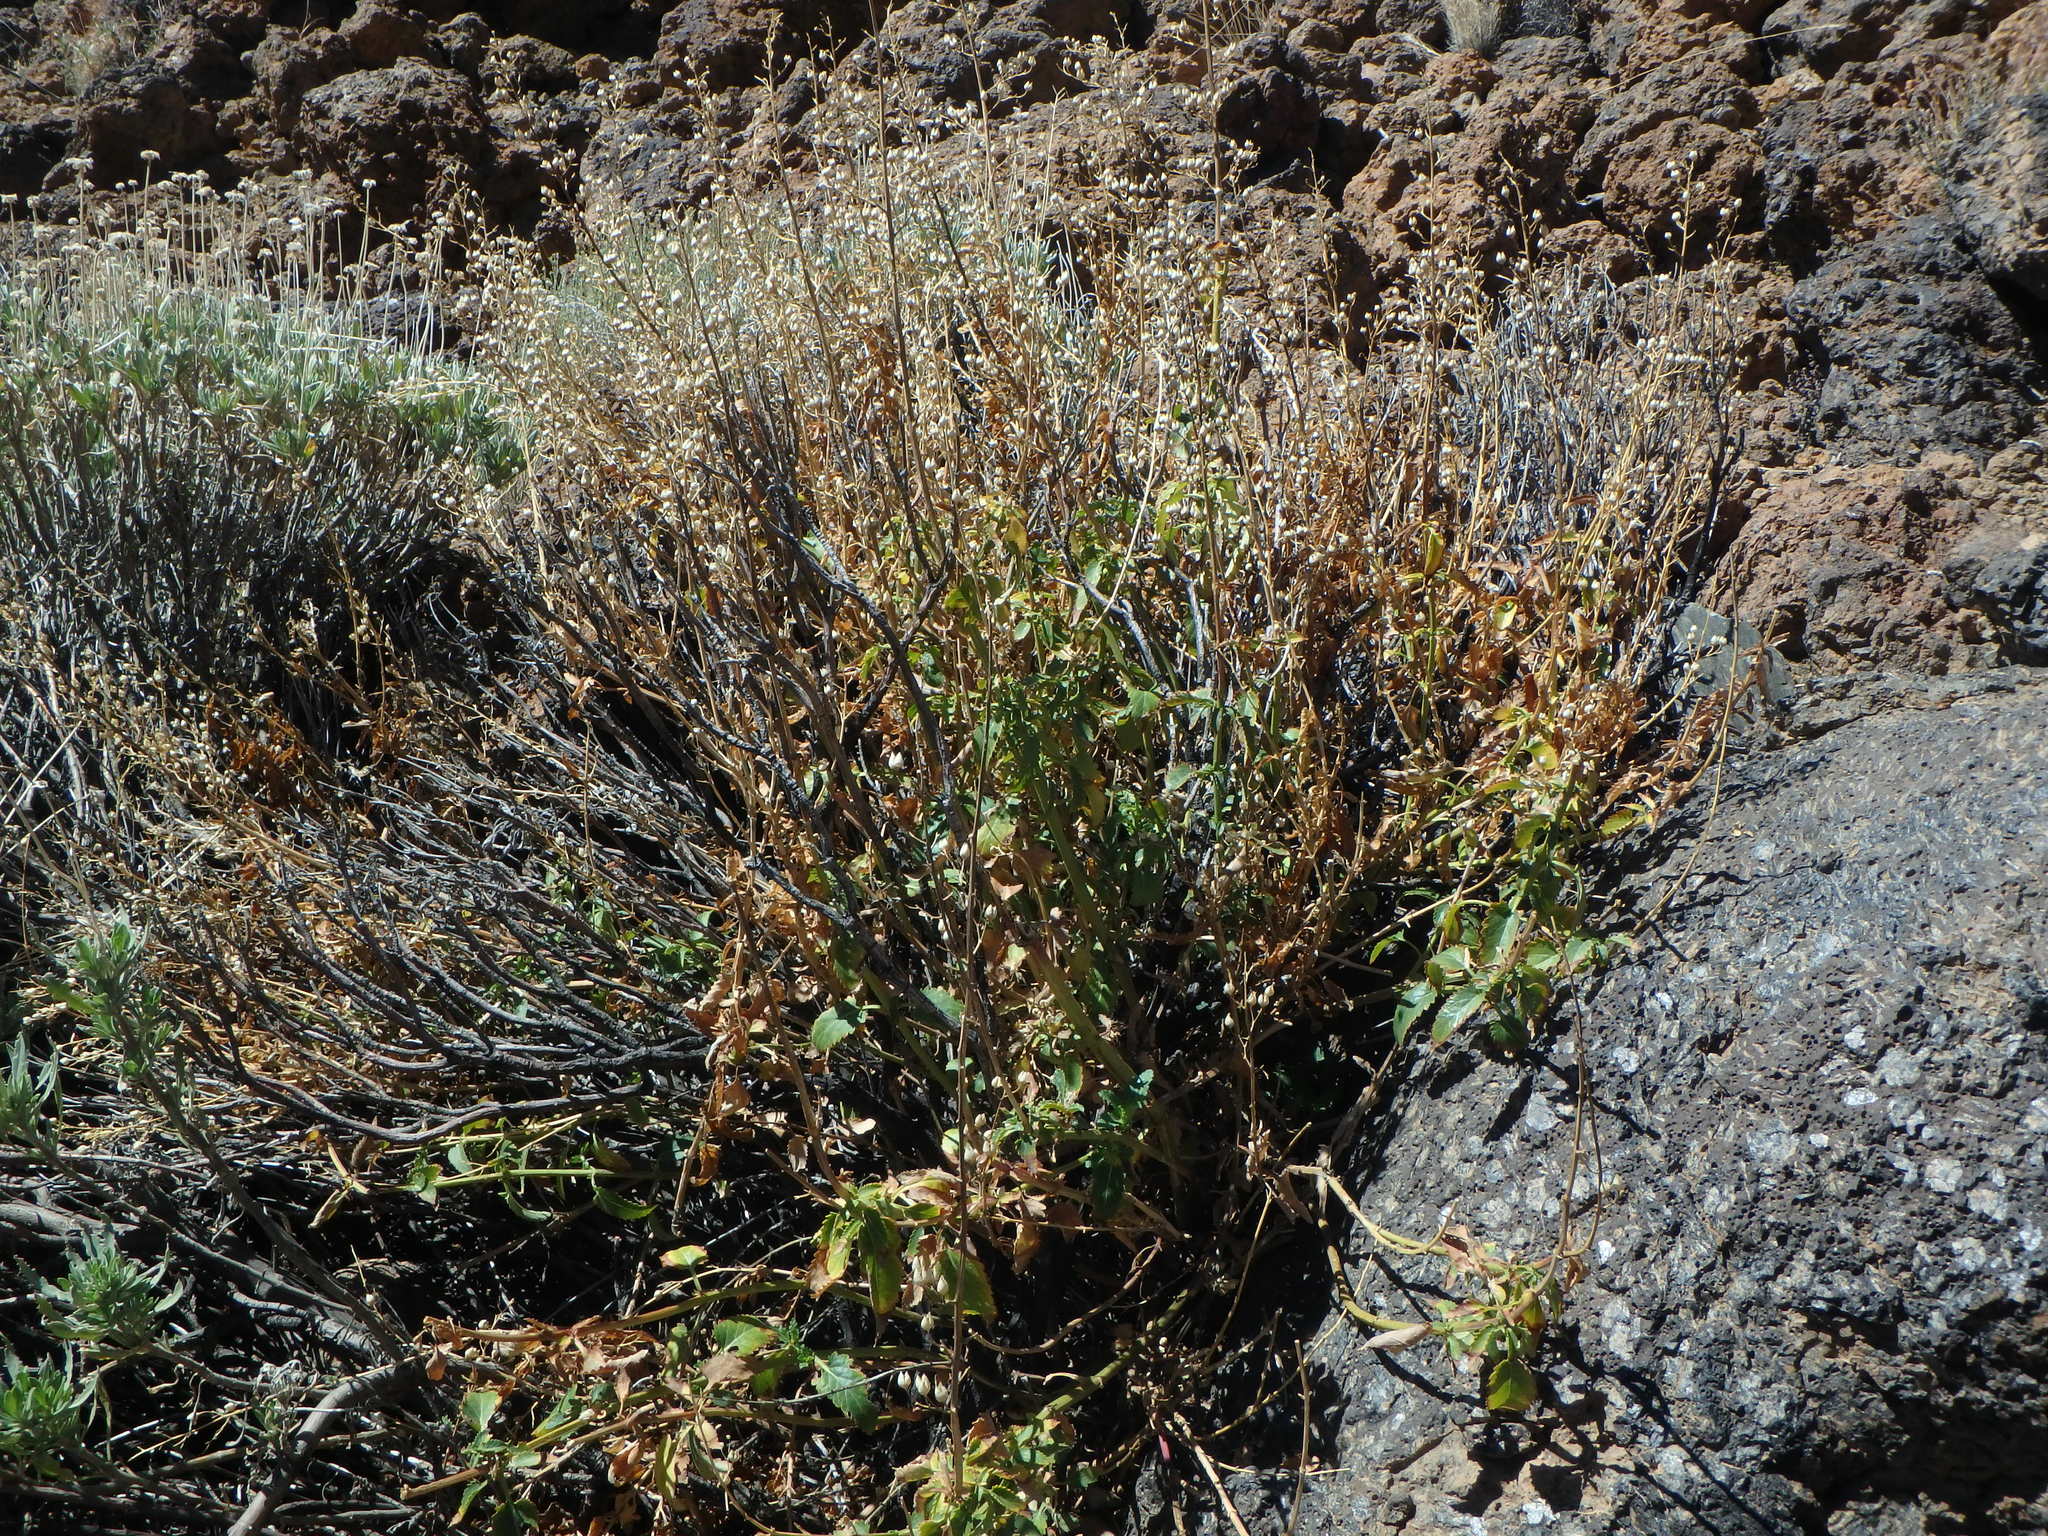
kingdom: Plantae
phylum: Tracheophyta
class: Magnoliopsida
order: Lamiales
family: Scrophulariaceae
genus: Scrophularia
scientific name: Scrophularia glabrata
